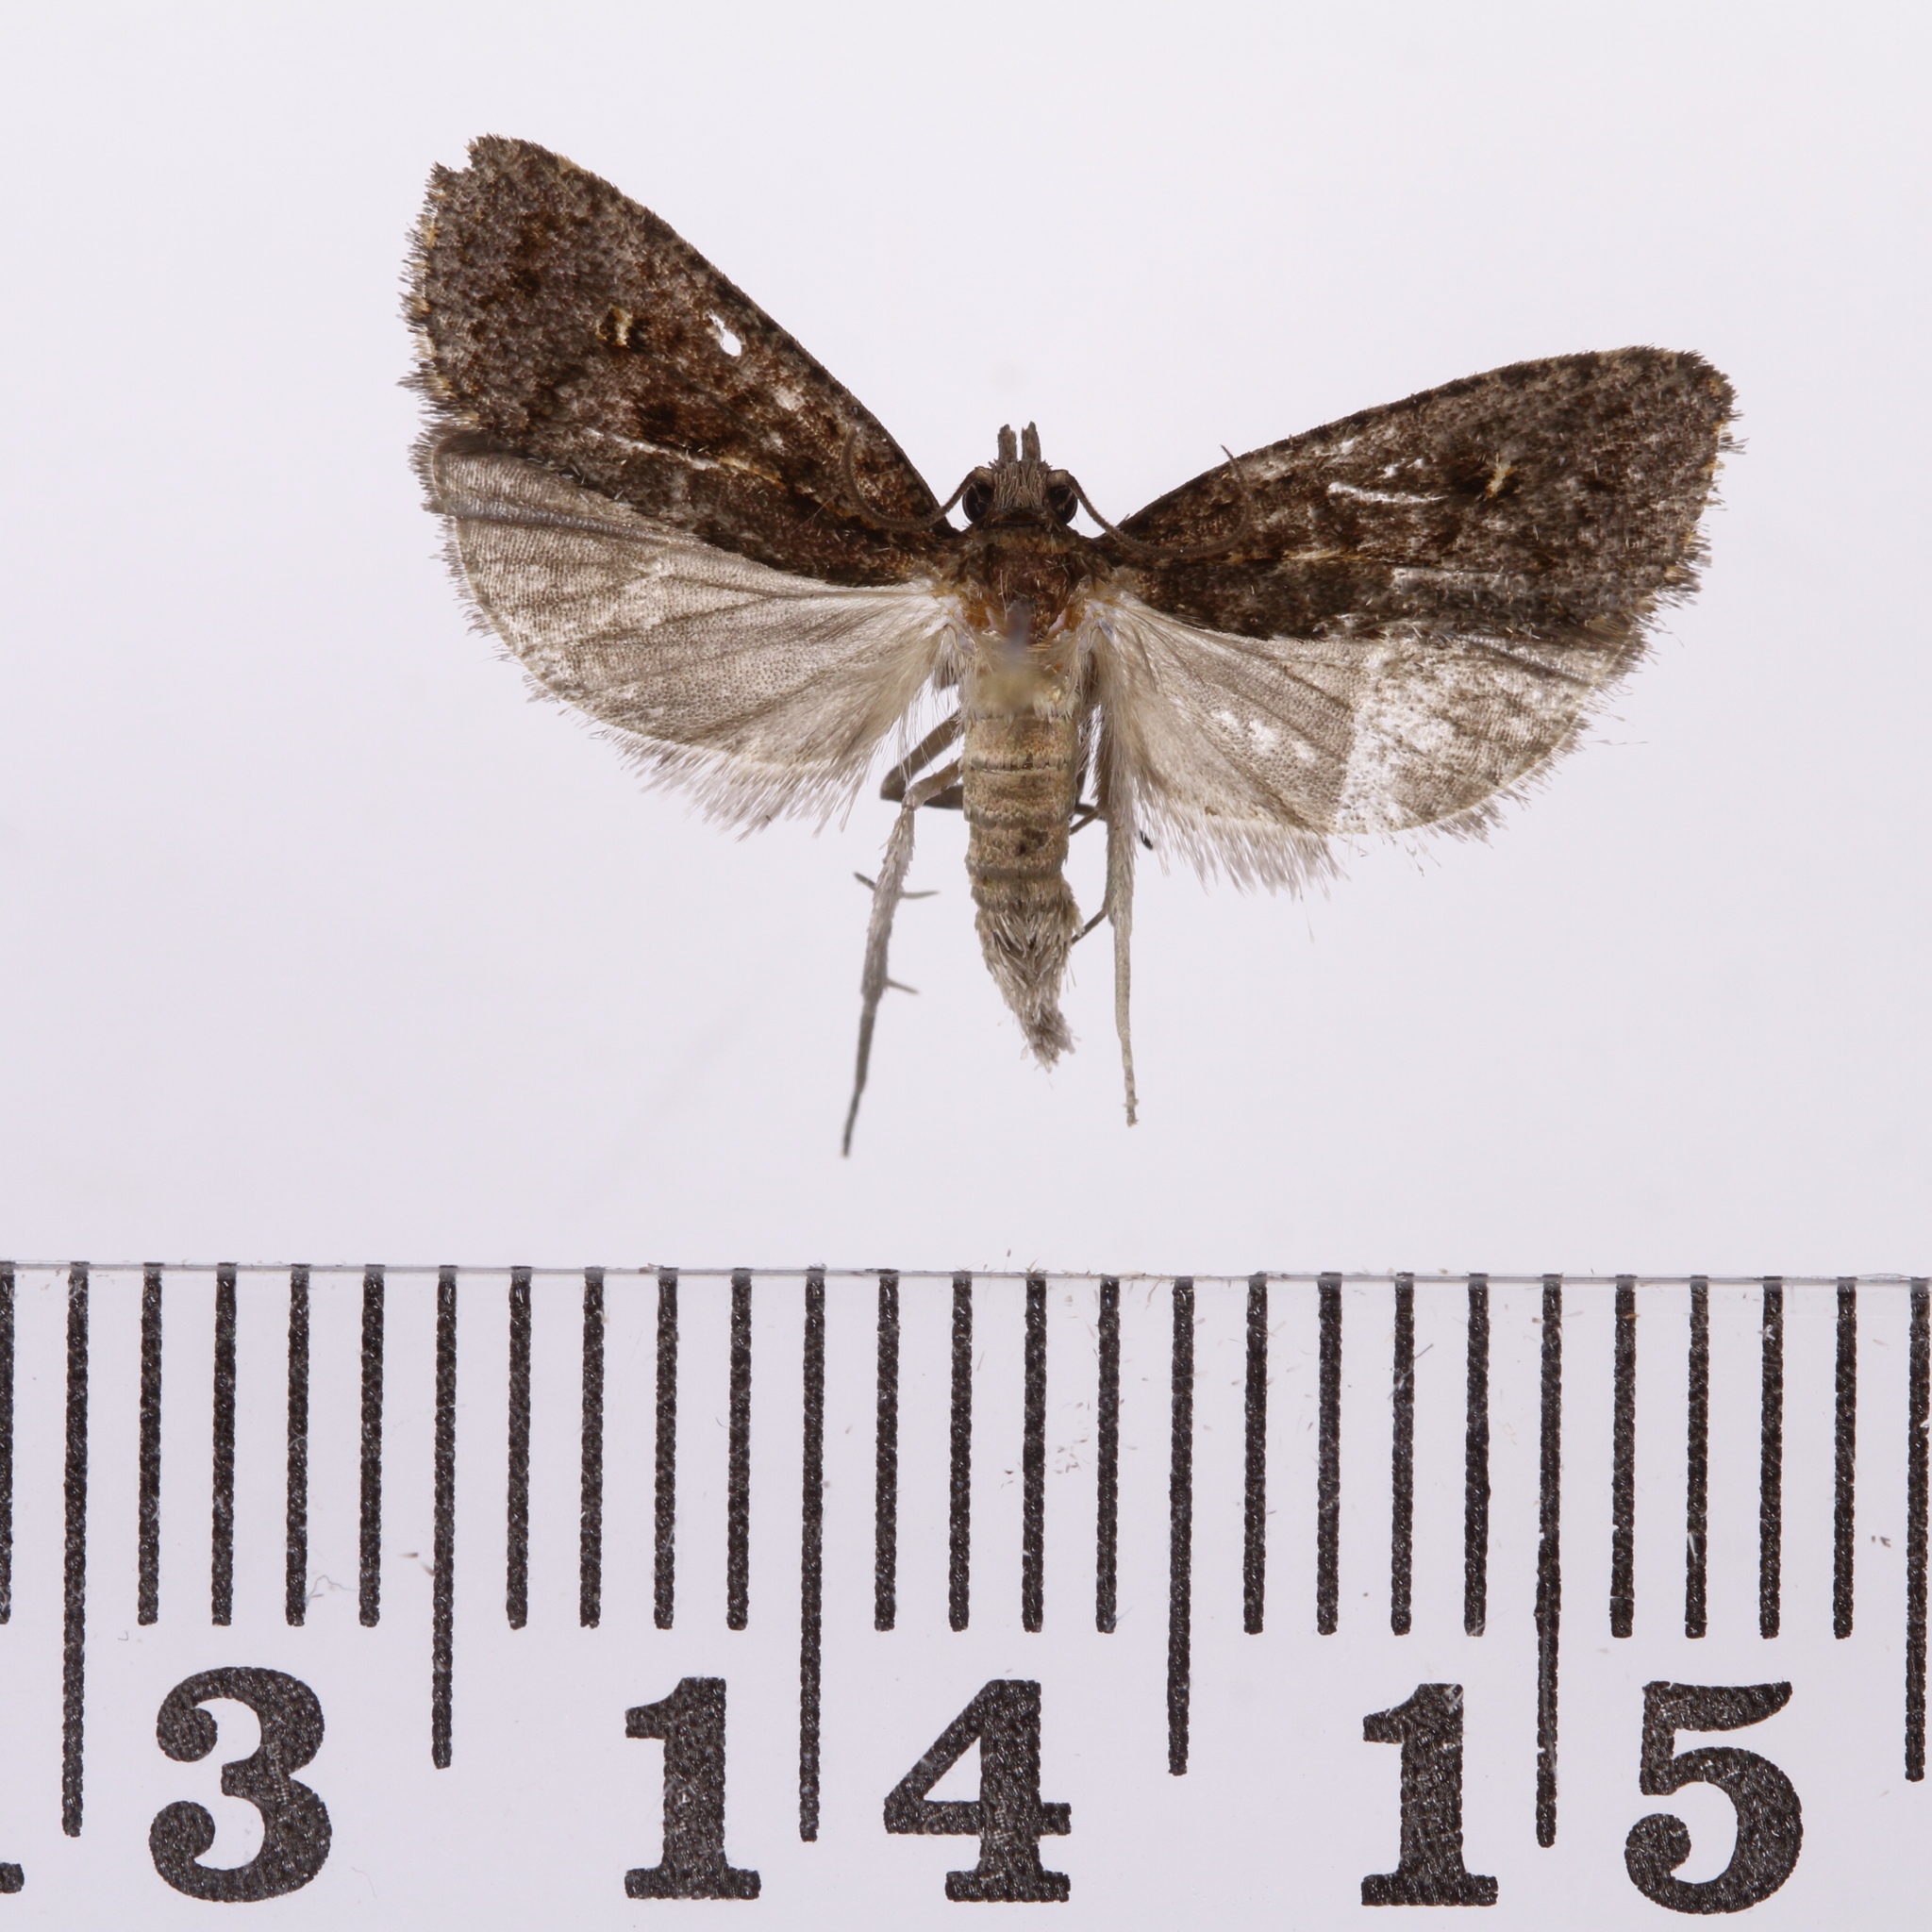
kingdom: Animalia
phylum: Arthropoda
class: Insecta
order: Lepidoptera
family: Tortricidae
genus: Cryptaspasma
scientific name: Cryptaspasma querula
